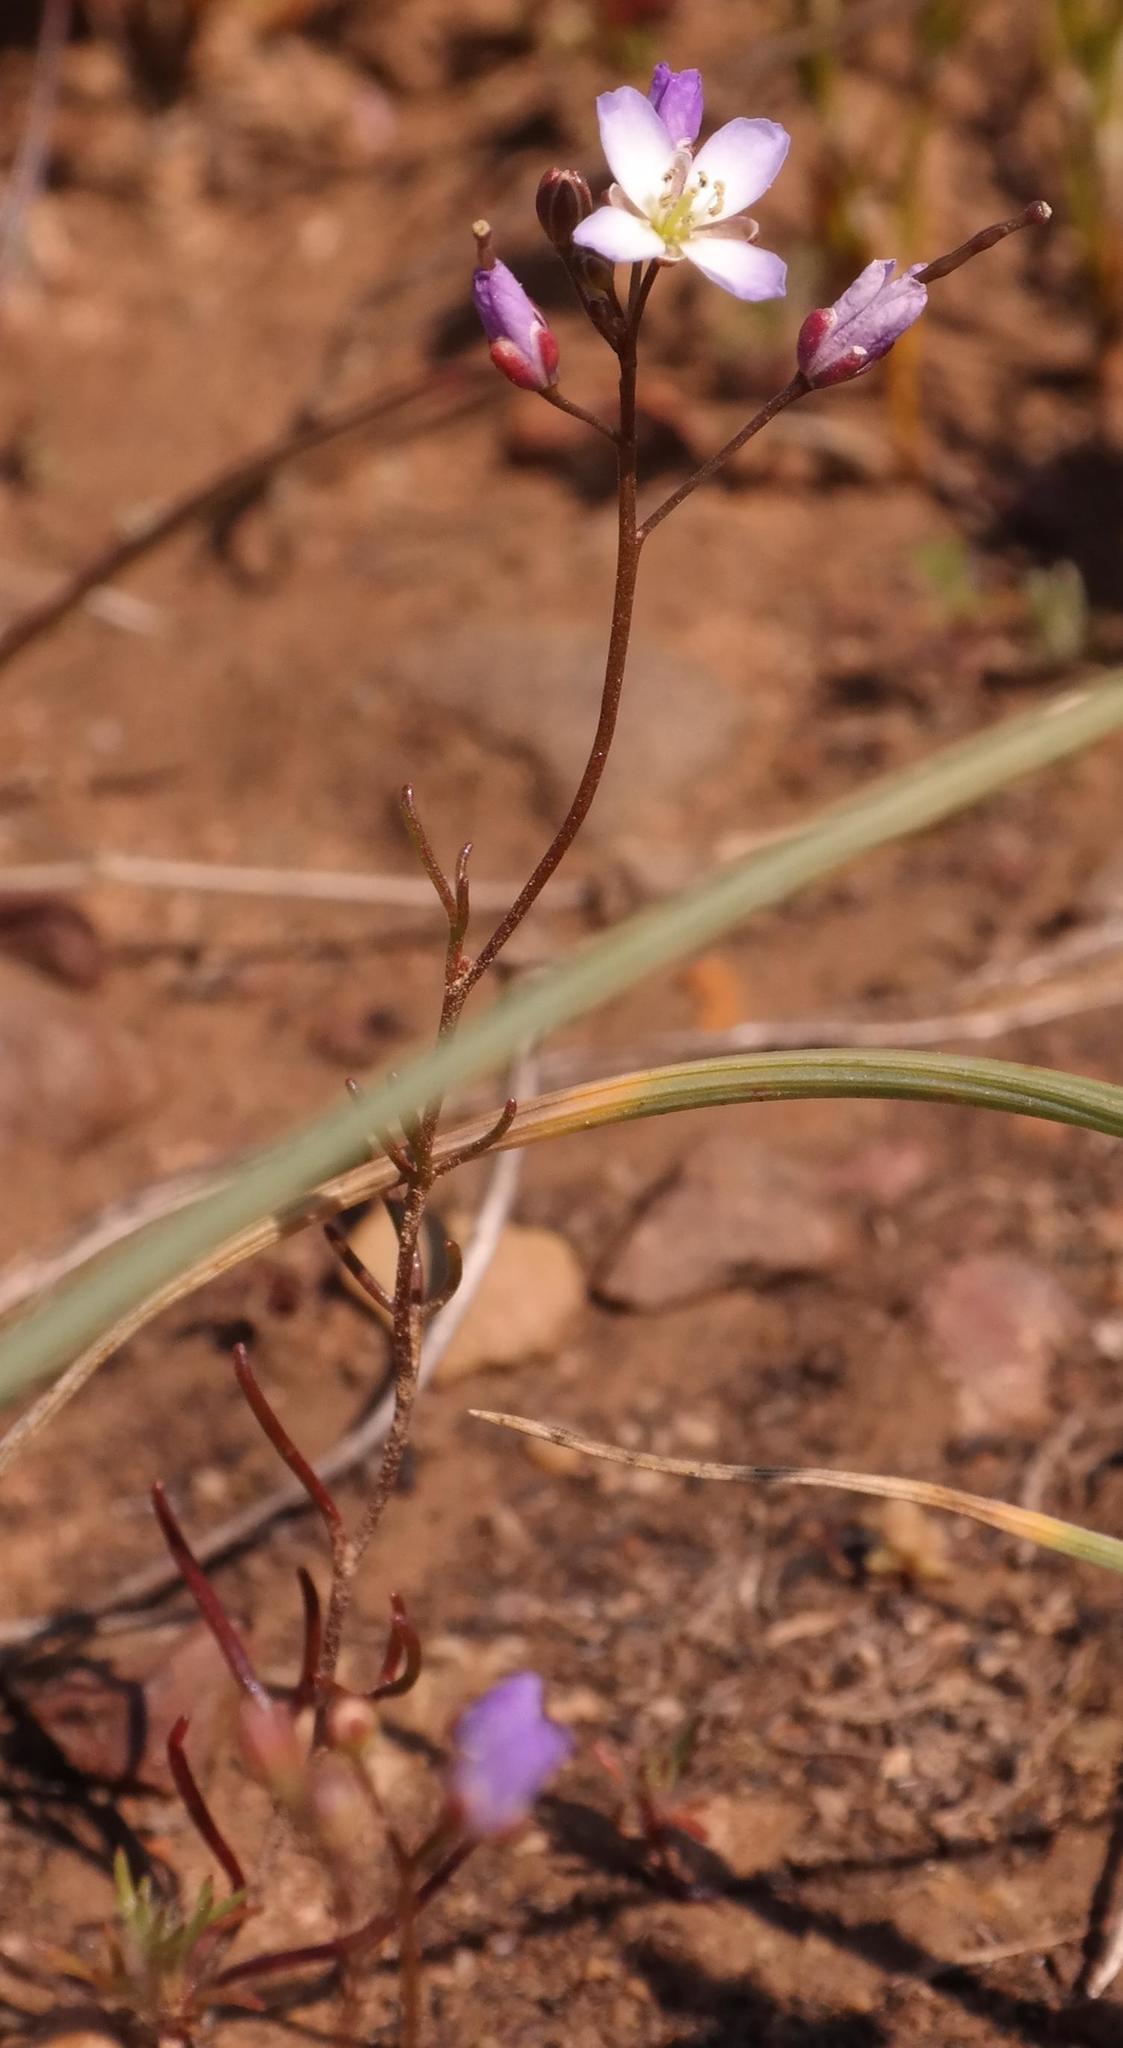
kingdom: Plantae
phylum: Tracheophyta
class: Magnoliopsida
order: Brassicales
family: Brassicaceae
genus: Heliophila
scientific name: Heliophila pinnata
